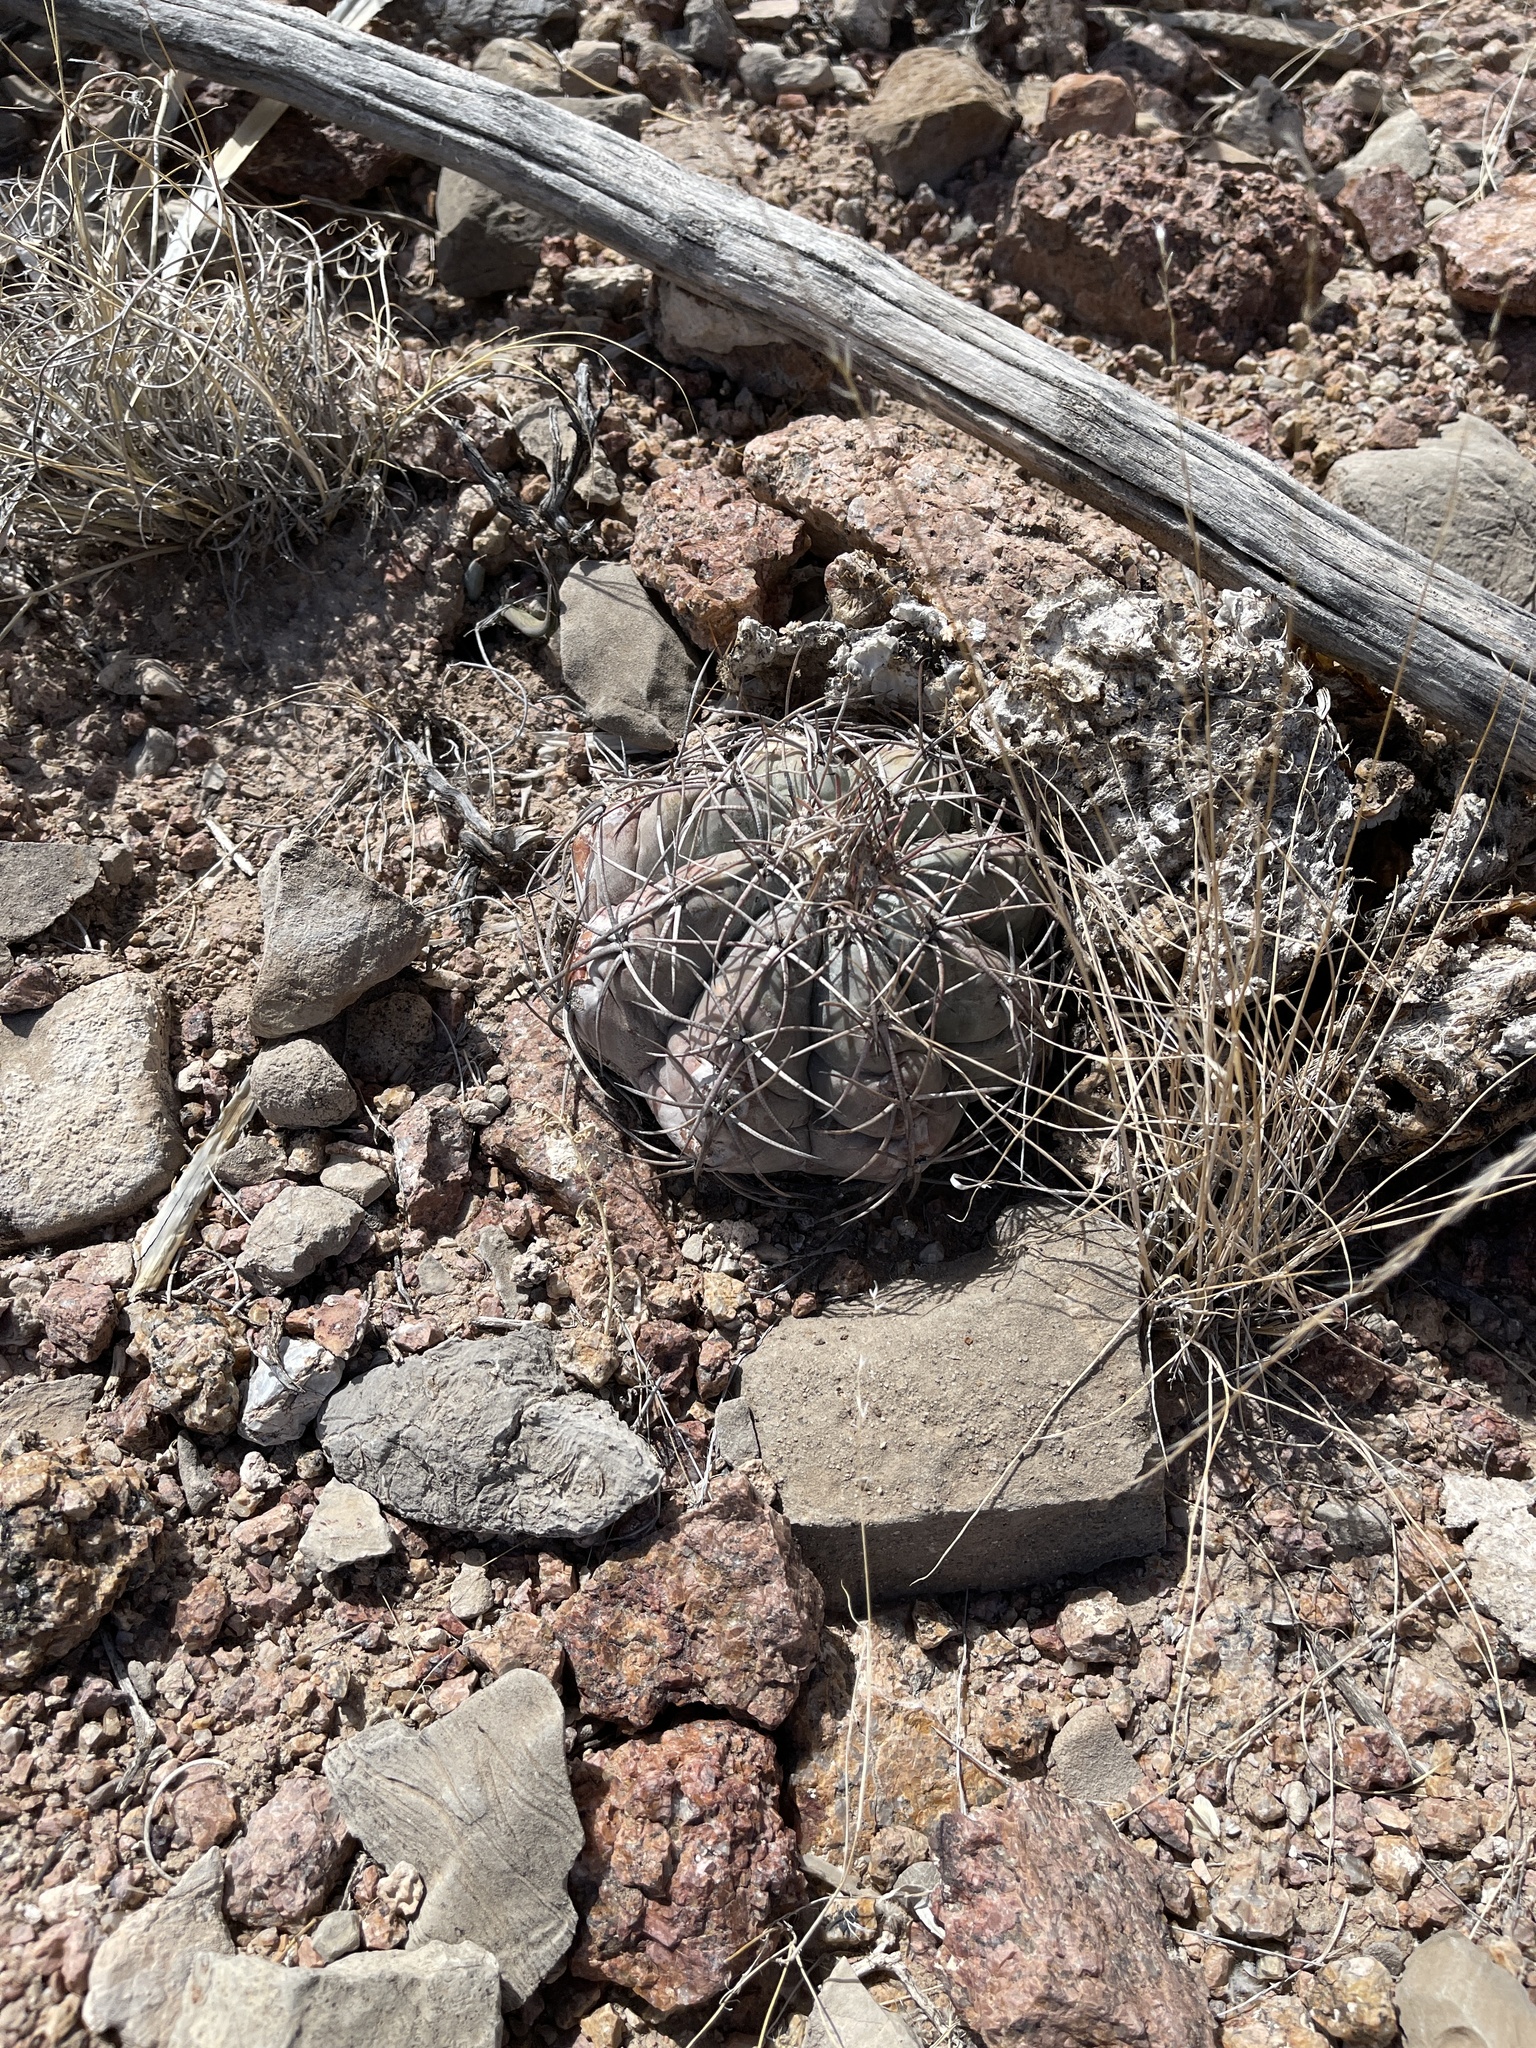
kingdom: Plantae
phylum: Tracheophyta
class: Magnoliopsida
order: Caryophyllales
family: Cactaceae
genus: Echinocactus
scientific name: Echinocactus horizonthalonius
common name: Devilshead
